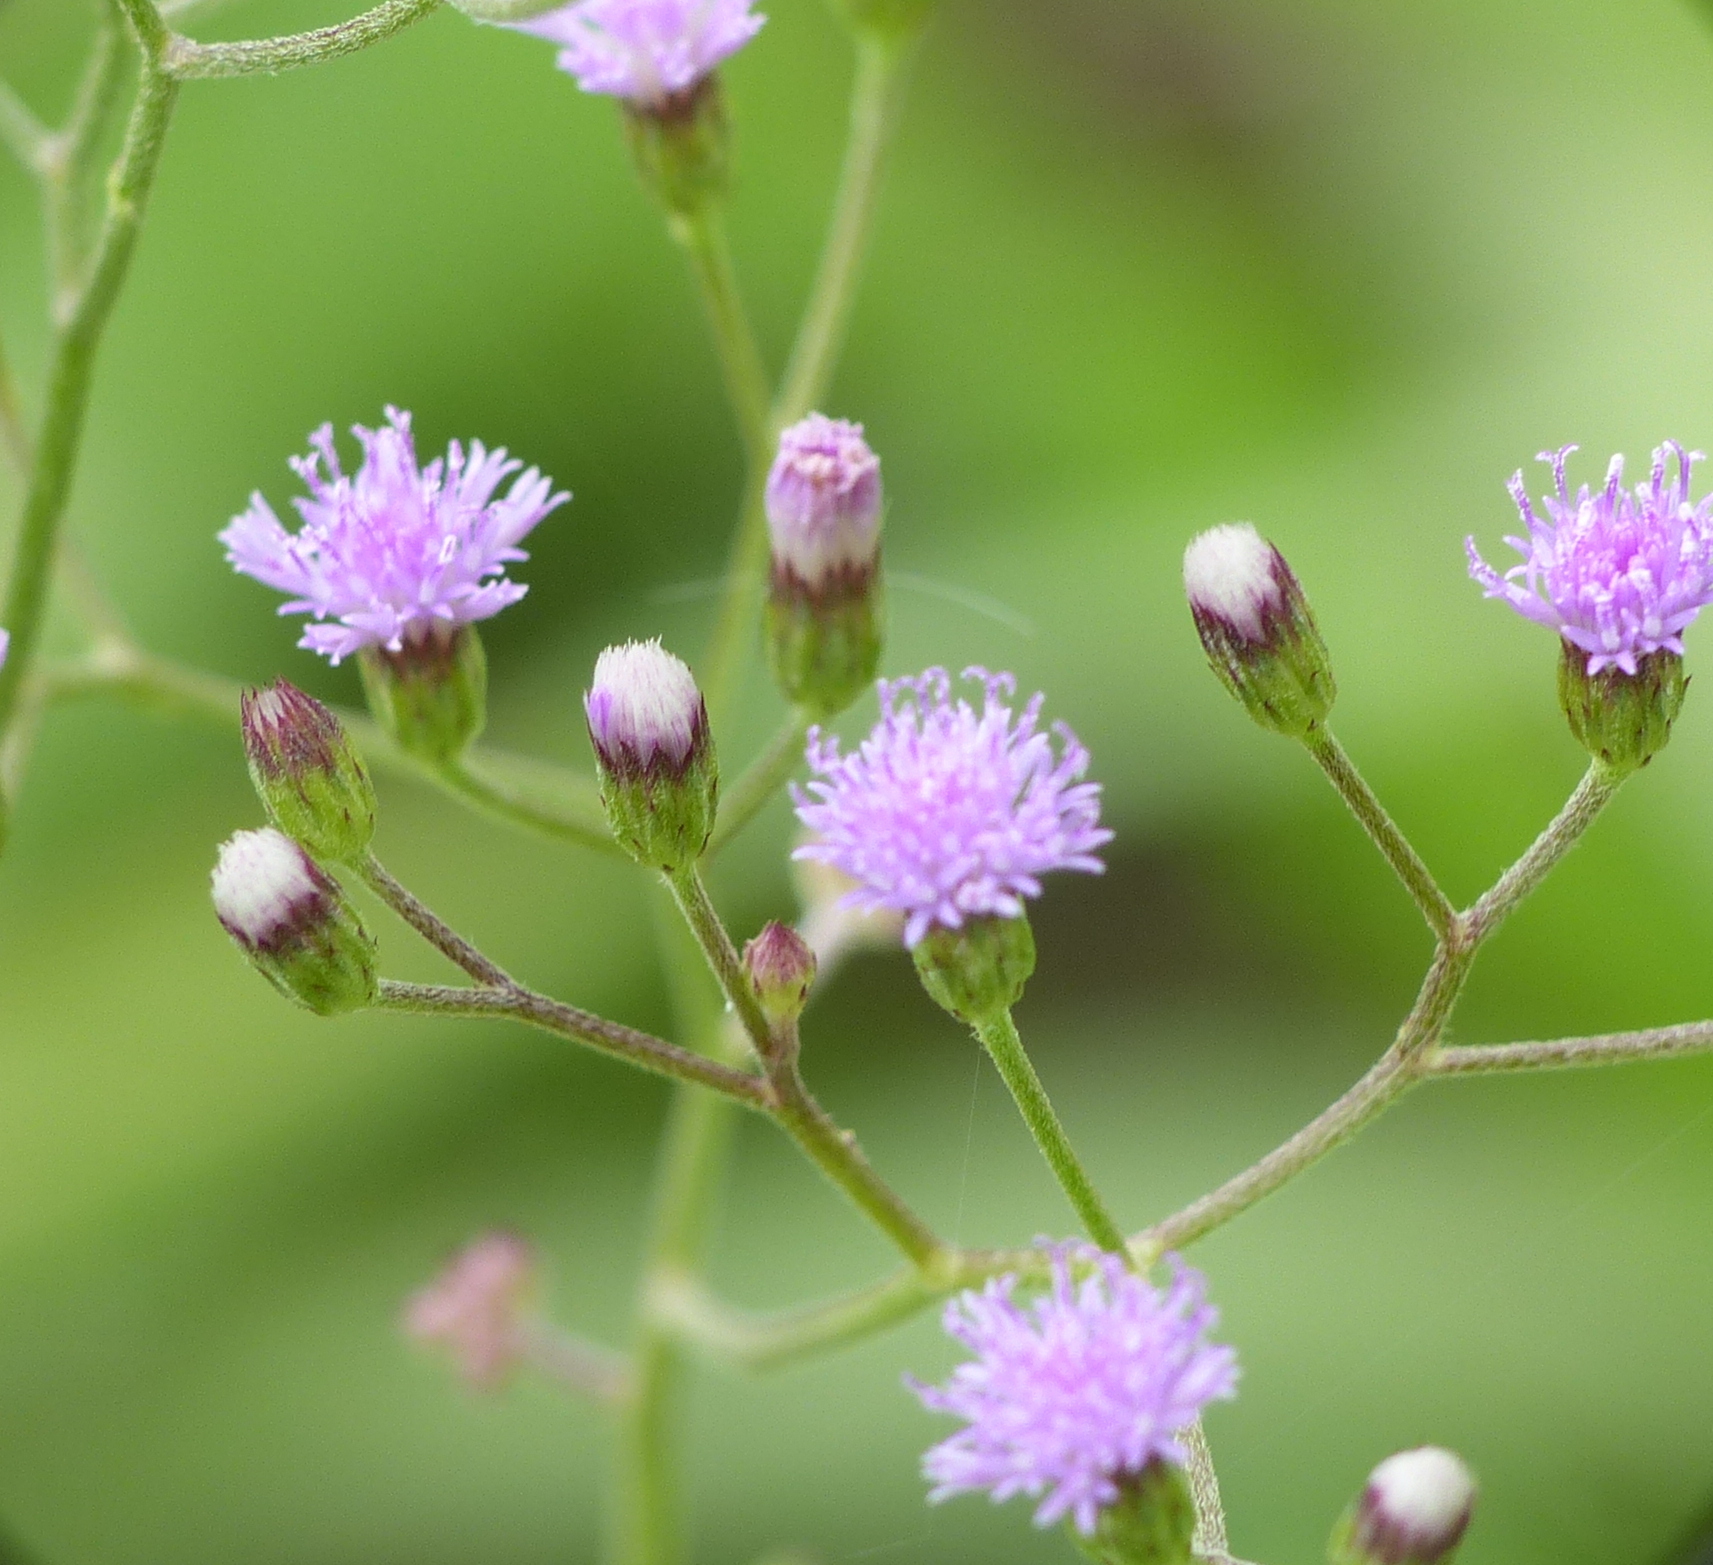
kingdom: Plantae
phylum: Tracheophyta
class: Magnoliopsida
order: Asterales
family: Asteraceae
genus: Cyanthillium
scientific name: Cyanthillium cinereum
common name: Little ironweed
